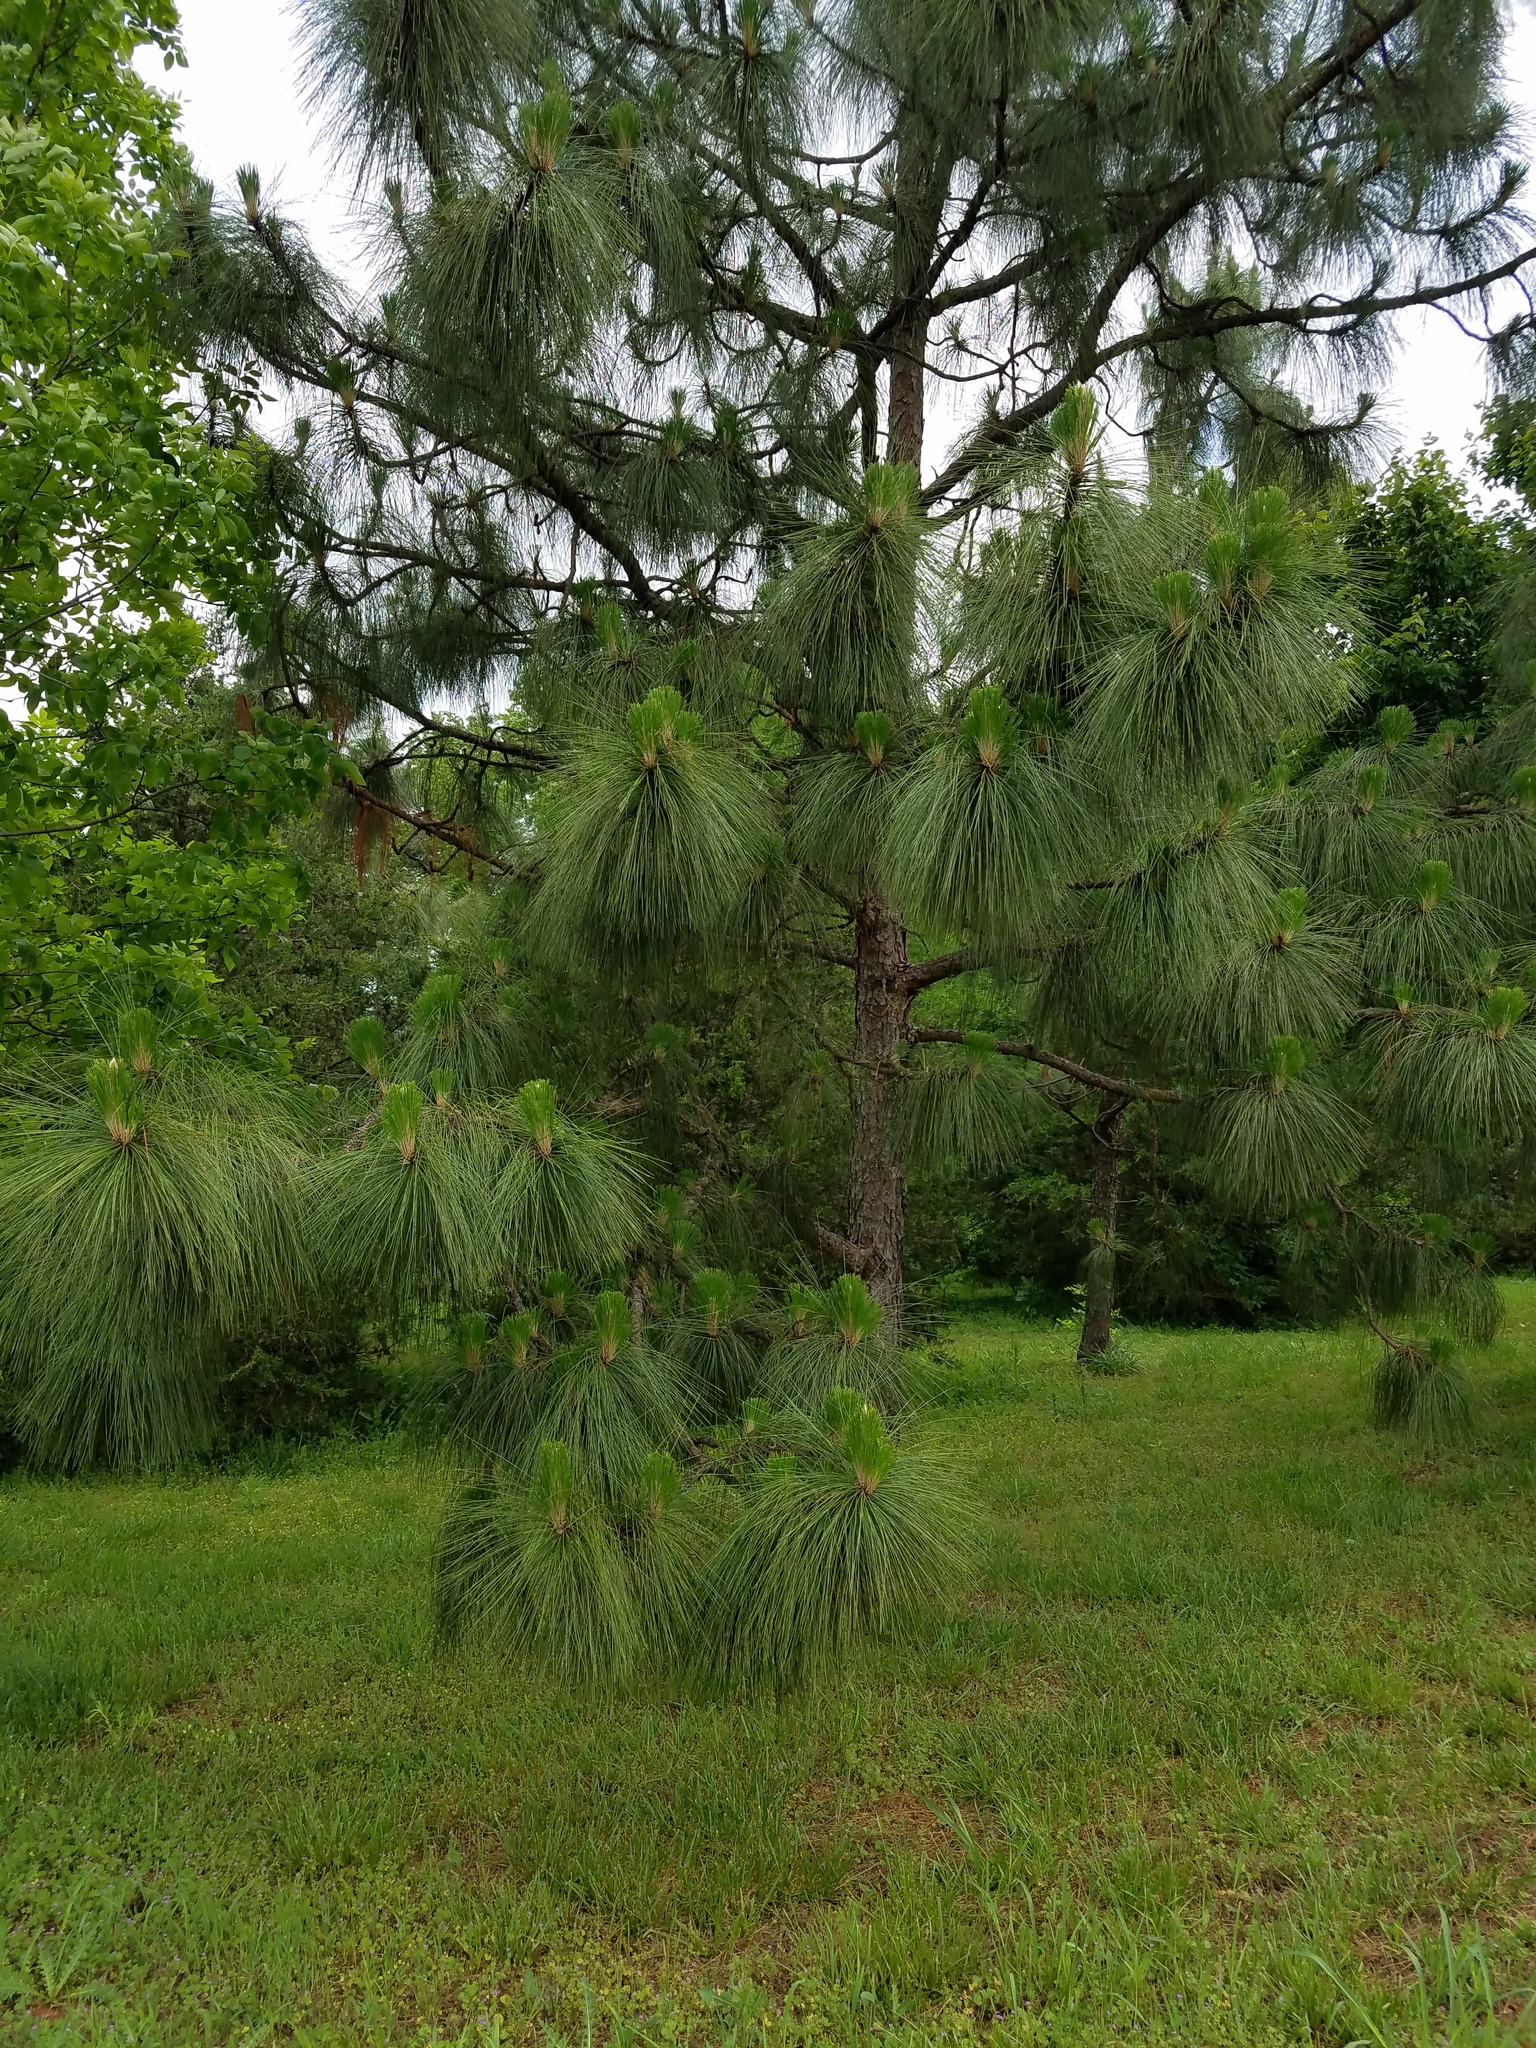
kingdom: Plantae
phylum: Tracheophyta
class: Pinopsida
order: Pinales
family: Pinaceae
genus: Pinus
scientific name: Pinus palustris
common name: Longleaf pine
